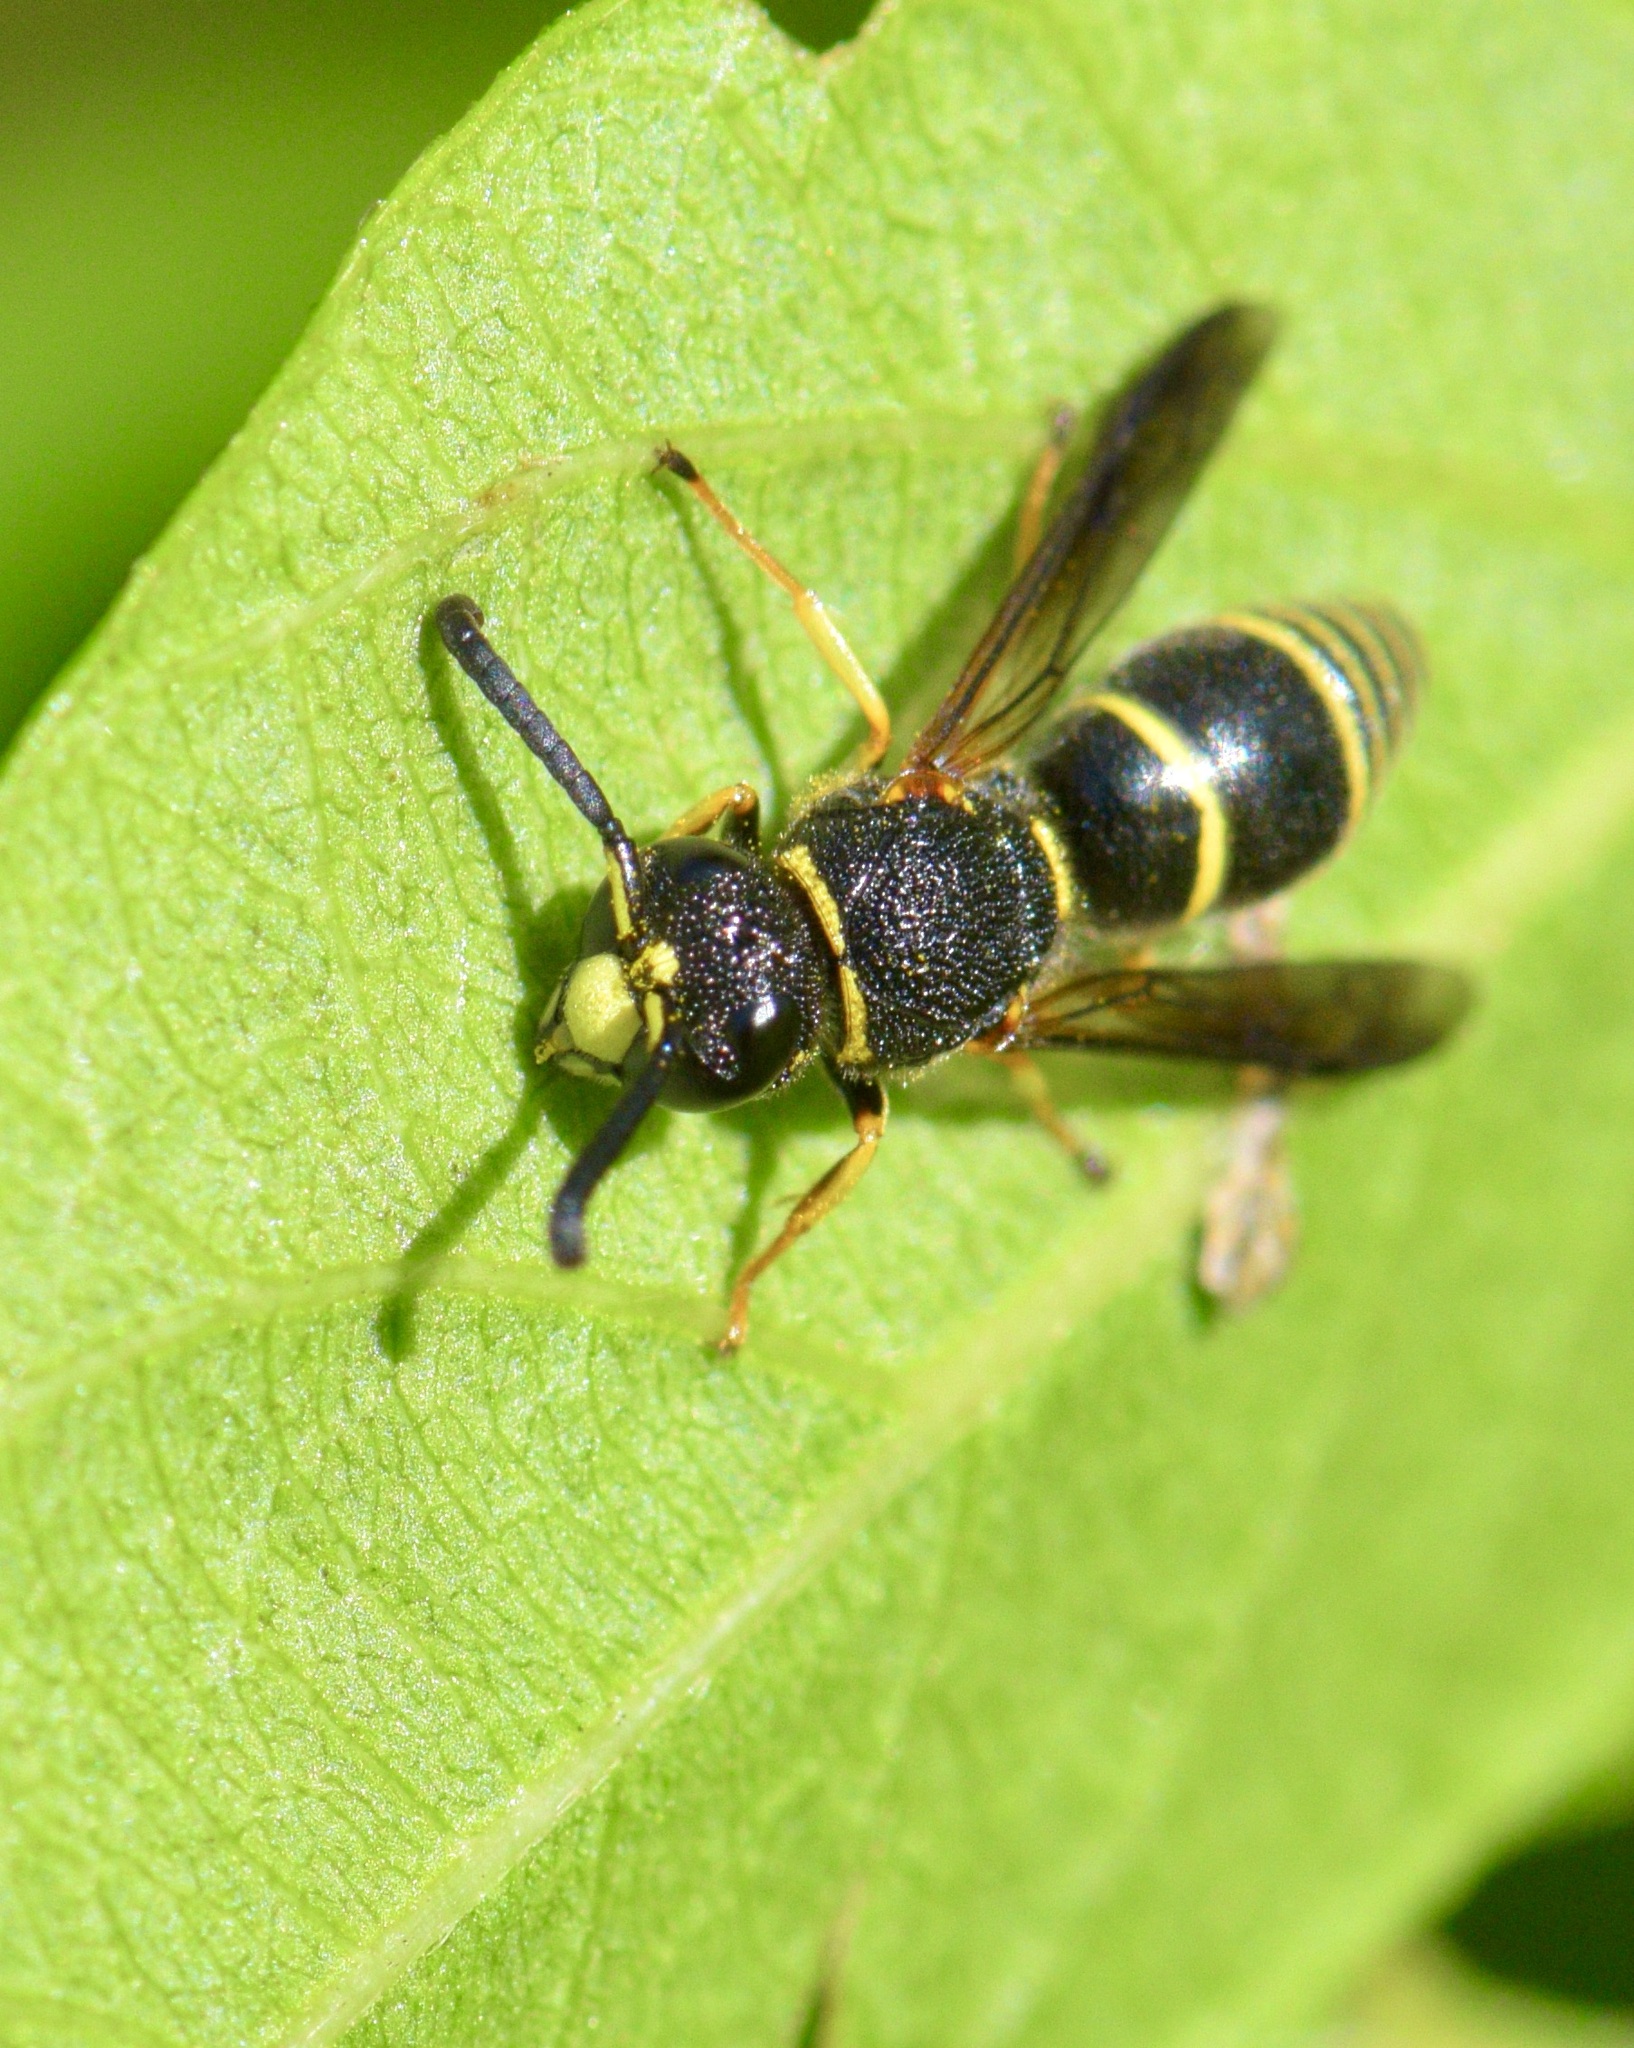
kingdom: Animalia
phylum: Arthropoda
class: Insecta
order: Hymenoptera
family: Eumenidae
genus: Euodynerus
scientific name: Euodynerus foraminatus
